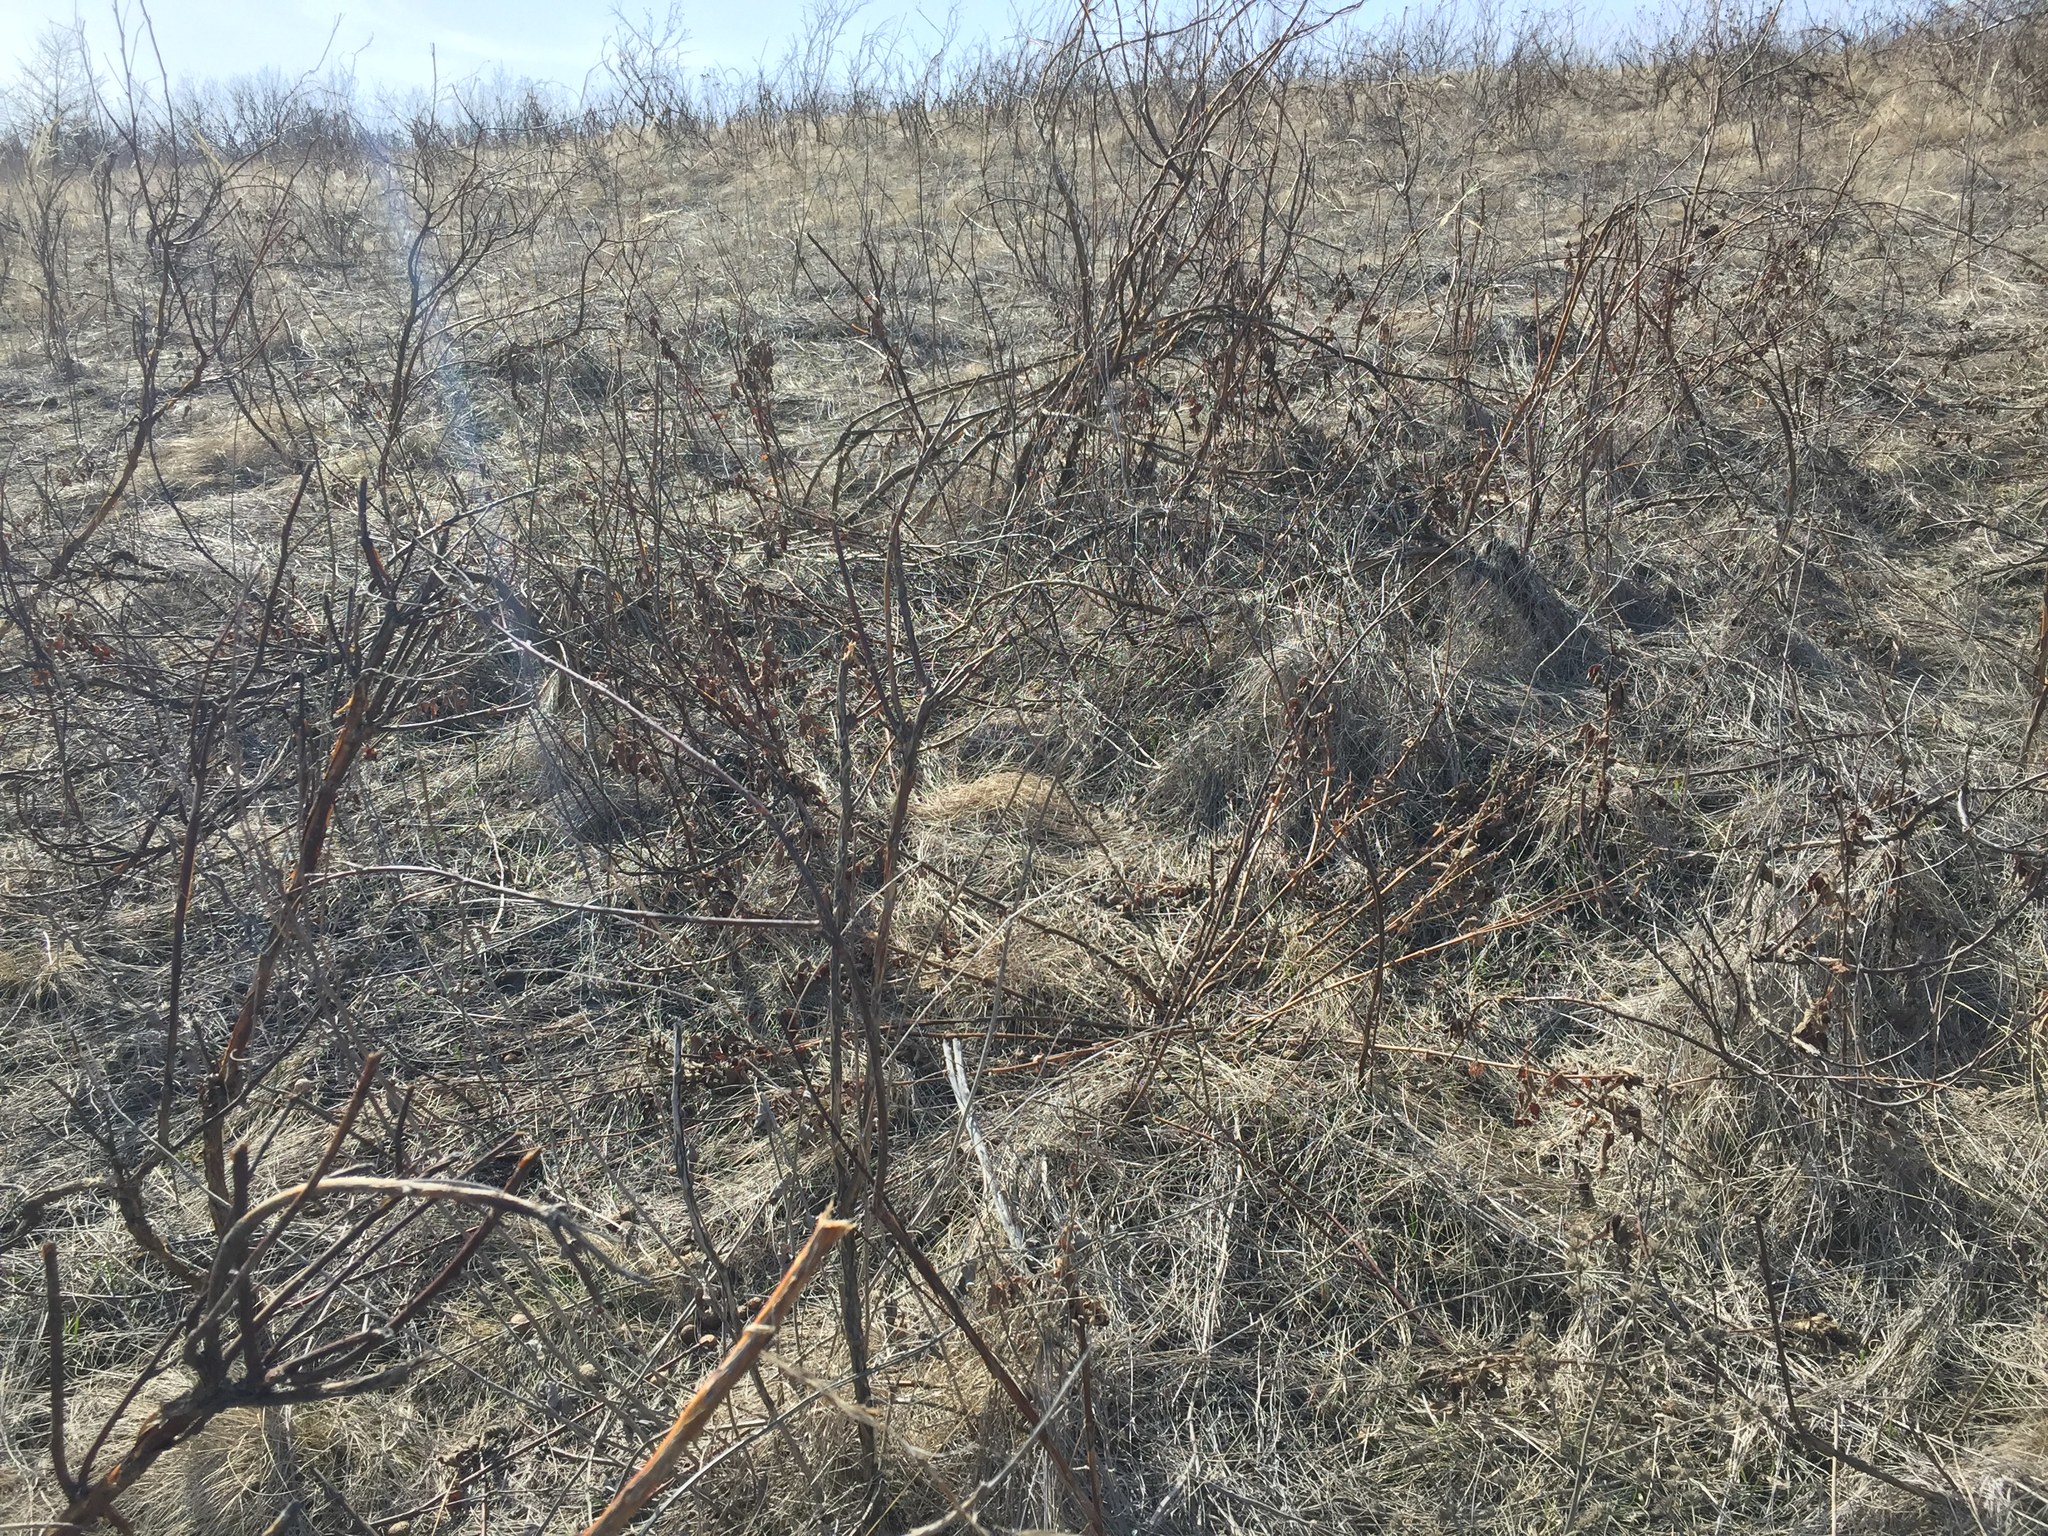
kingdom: Plantae
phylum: Tracheophyta
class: Magnoliopsida
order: Fabales
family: Fabaceae
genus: Astragalus
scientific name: Astragalus cornutus
